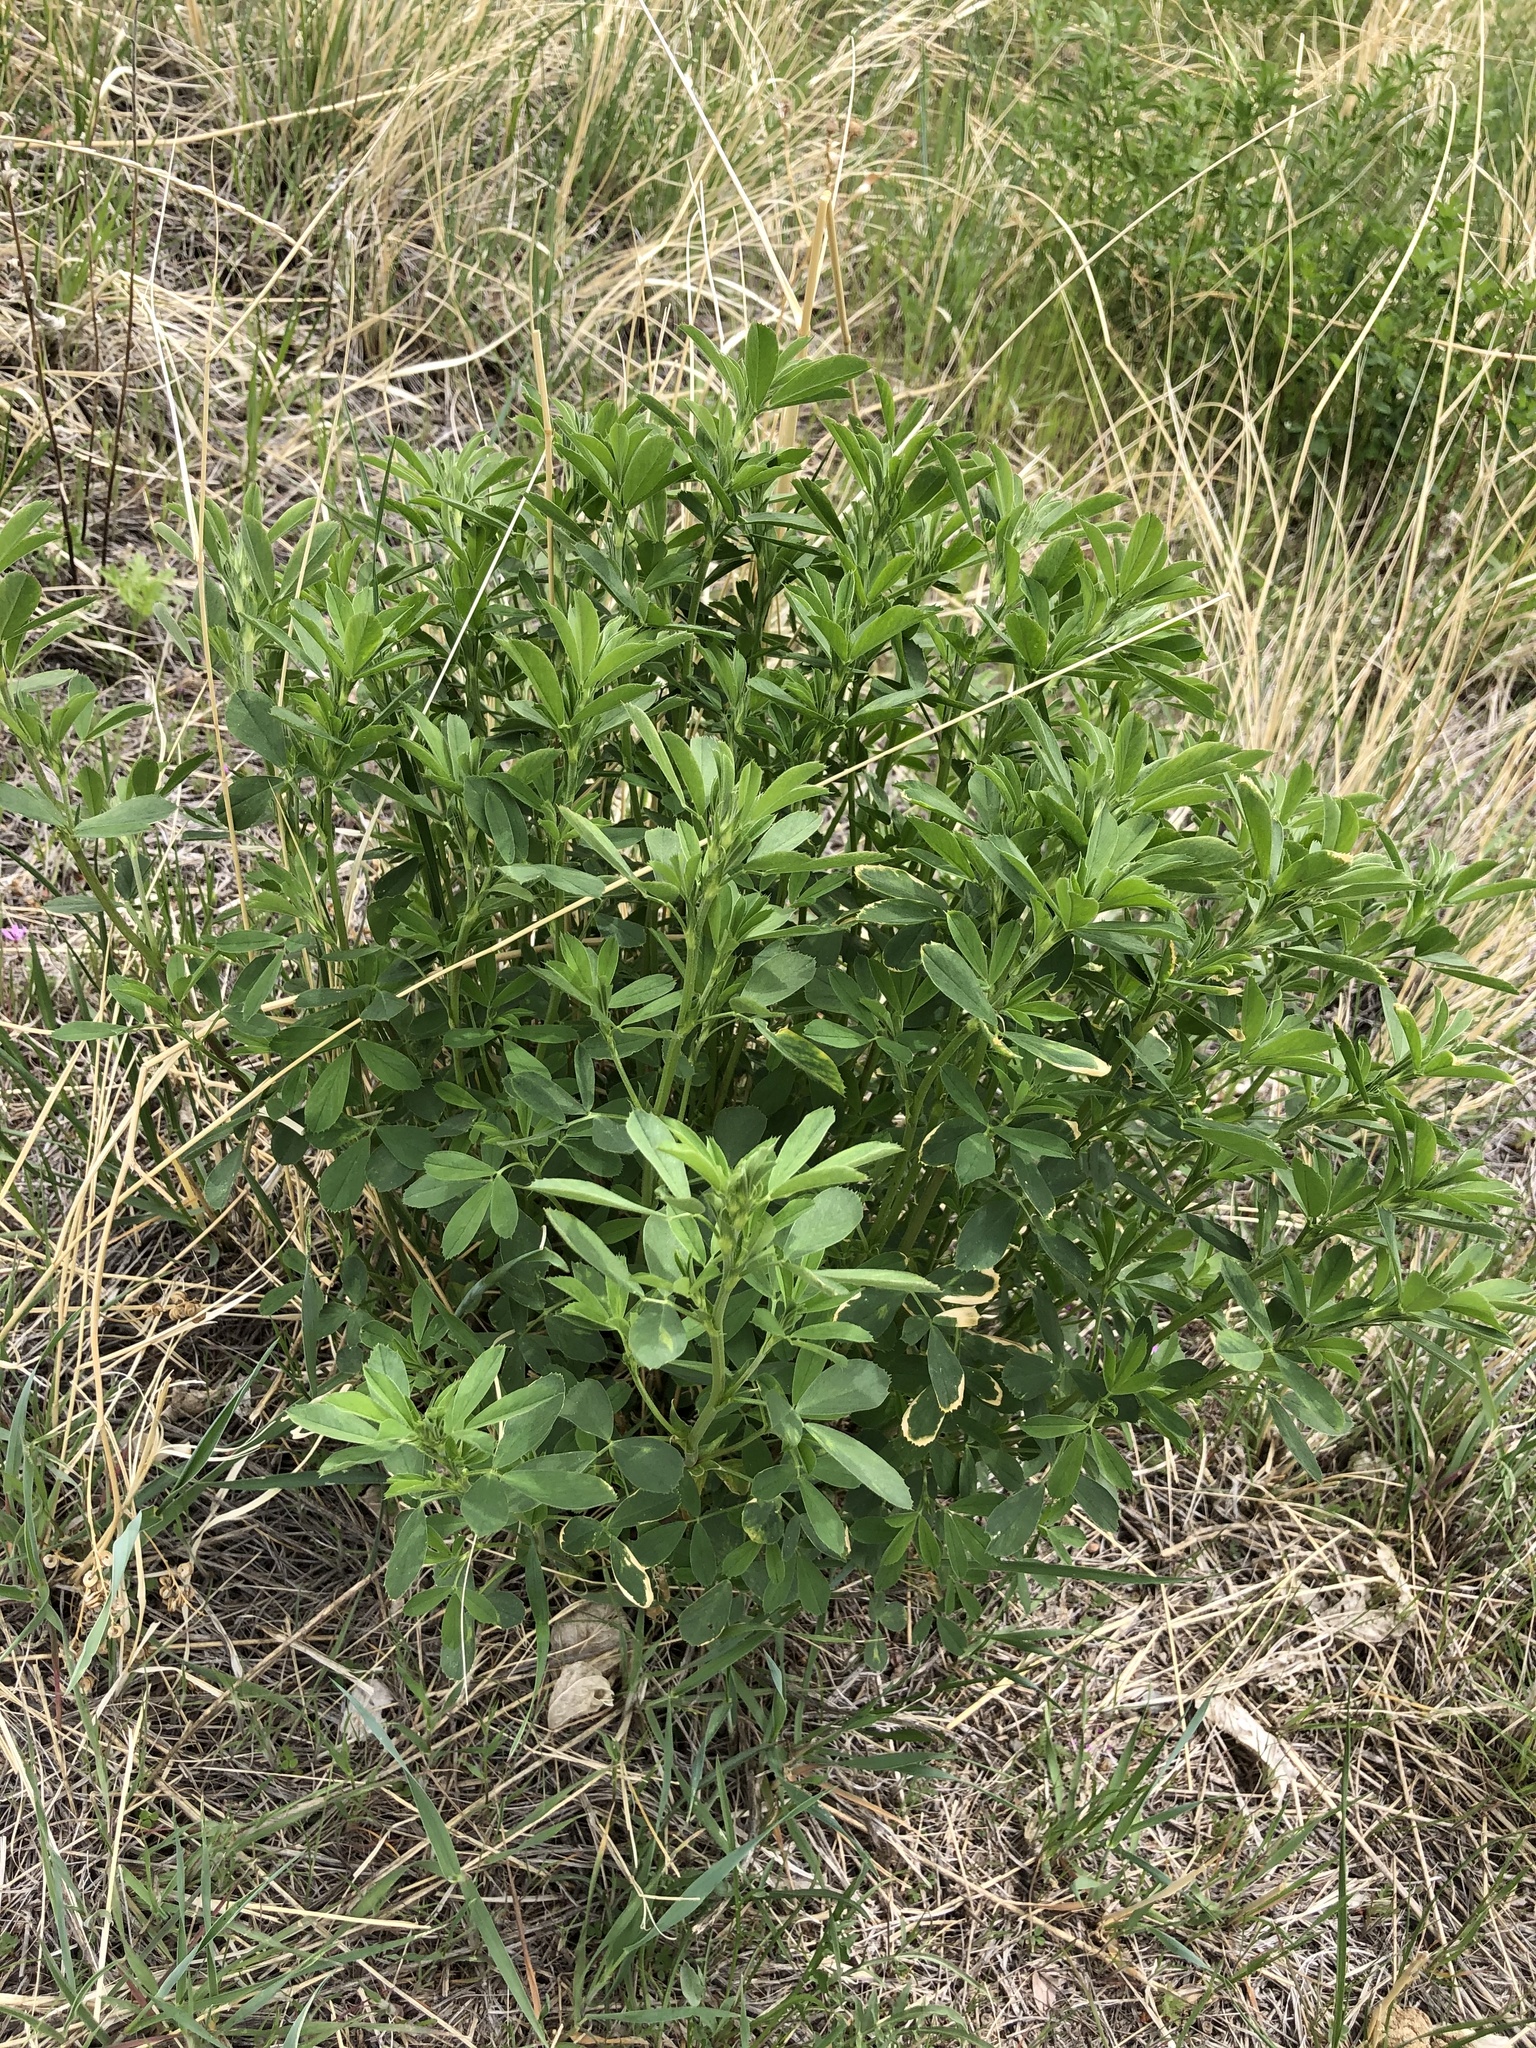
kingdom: Plantae
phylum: Tracheophyta
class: Magnoliopsida
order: Fabales
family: Fabaceae
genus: Medicago
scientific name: Medicago sativa
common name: Alfalfa
